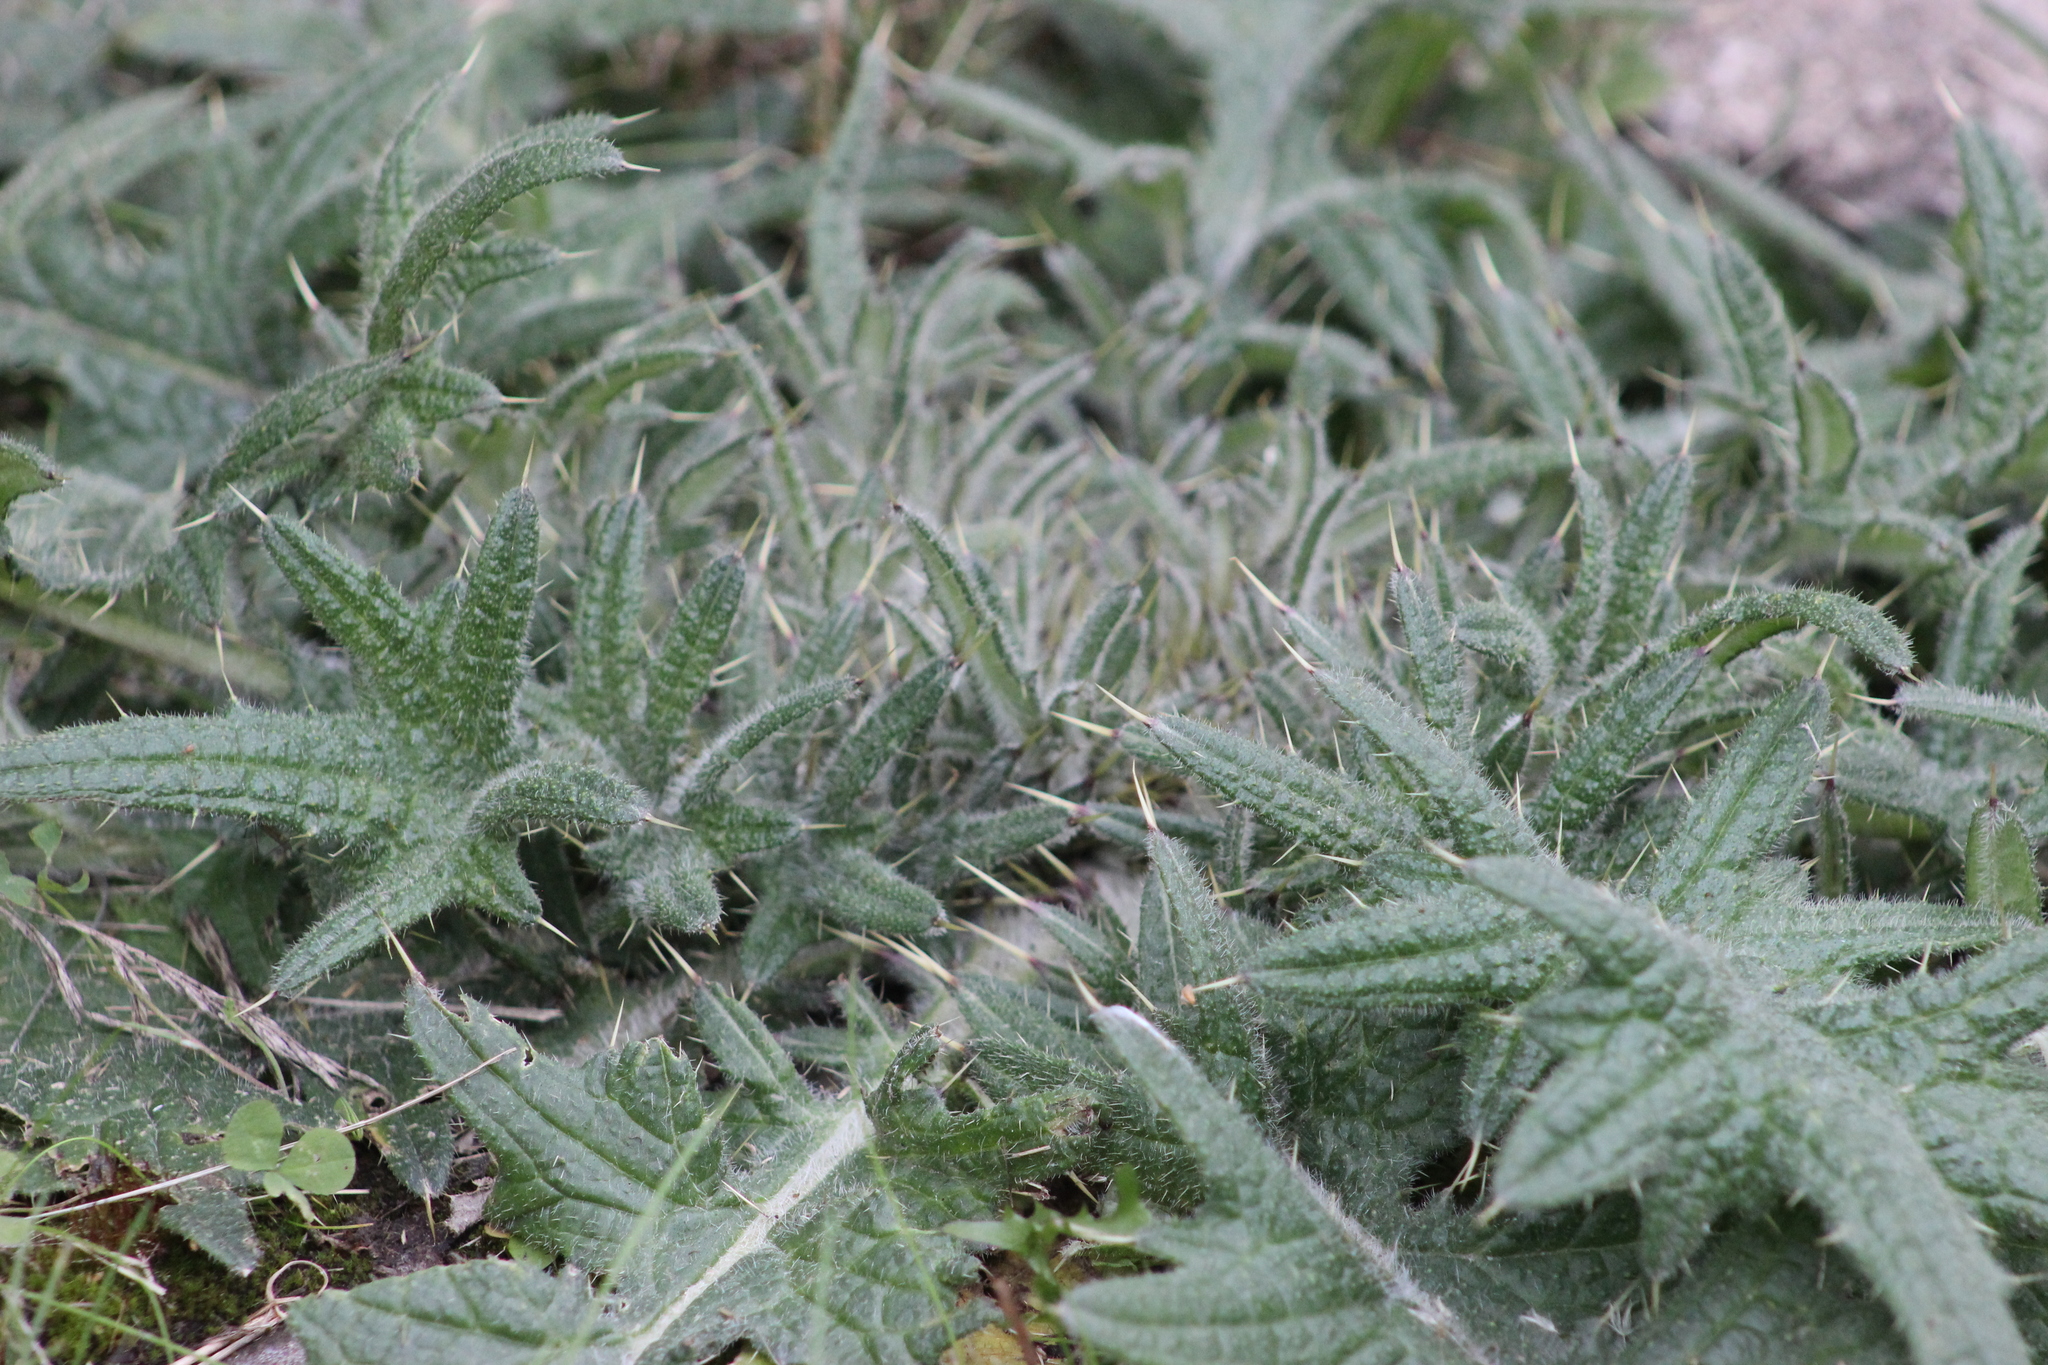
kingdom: Plantae
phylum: Tracheophyta
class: Magnoliopsida
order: Asterales
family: Asteraceae
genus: Cirsium
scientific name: Cirsium vulgare
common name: Bull thistle
